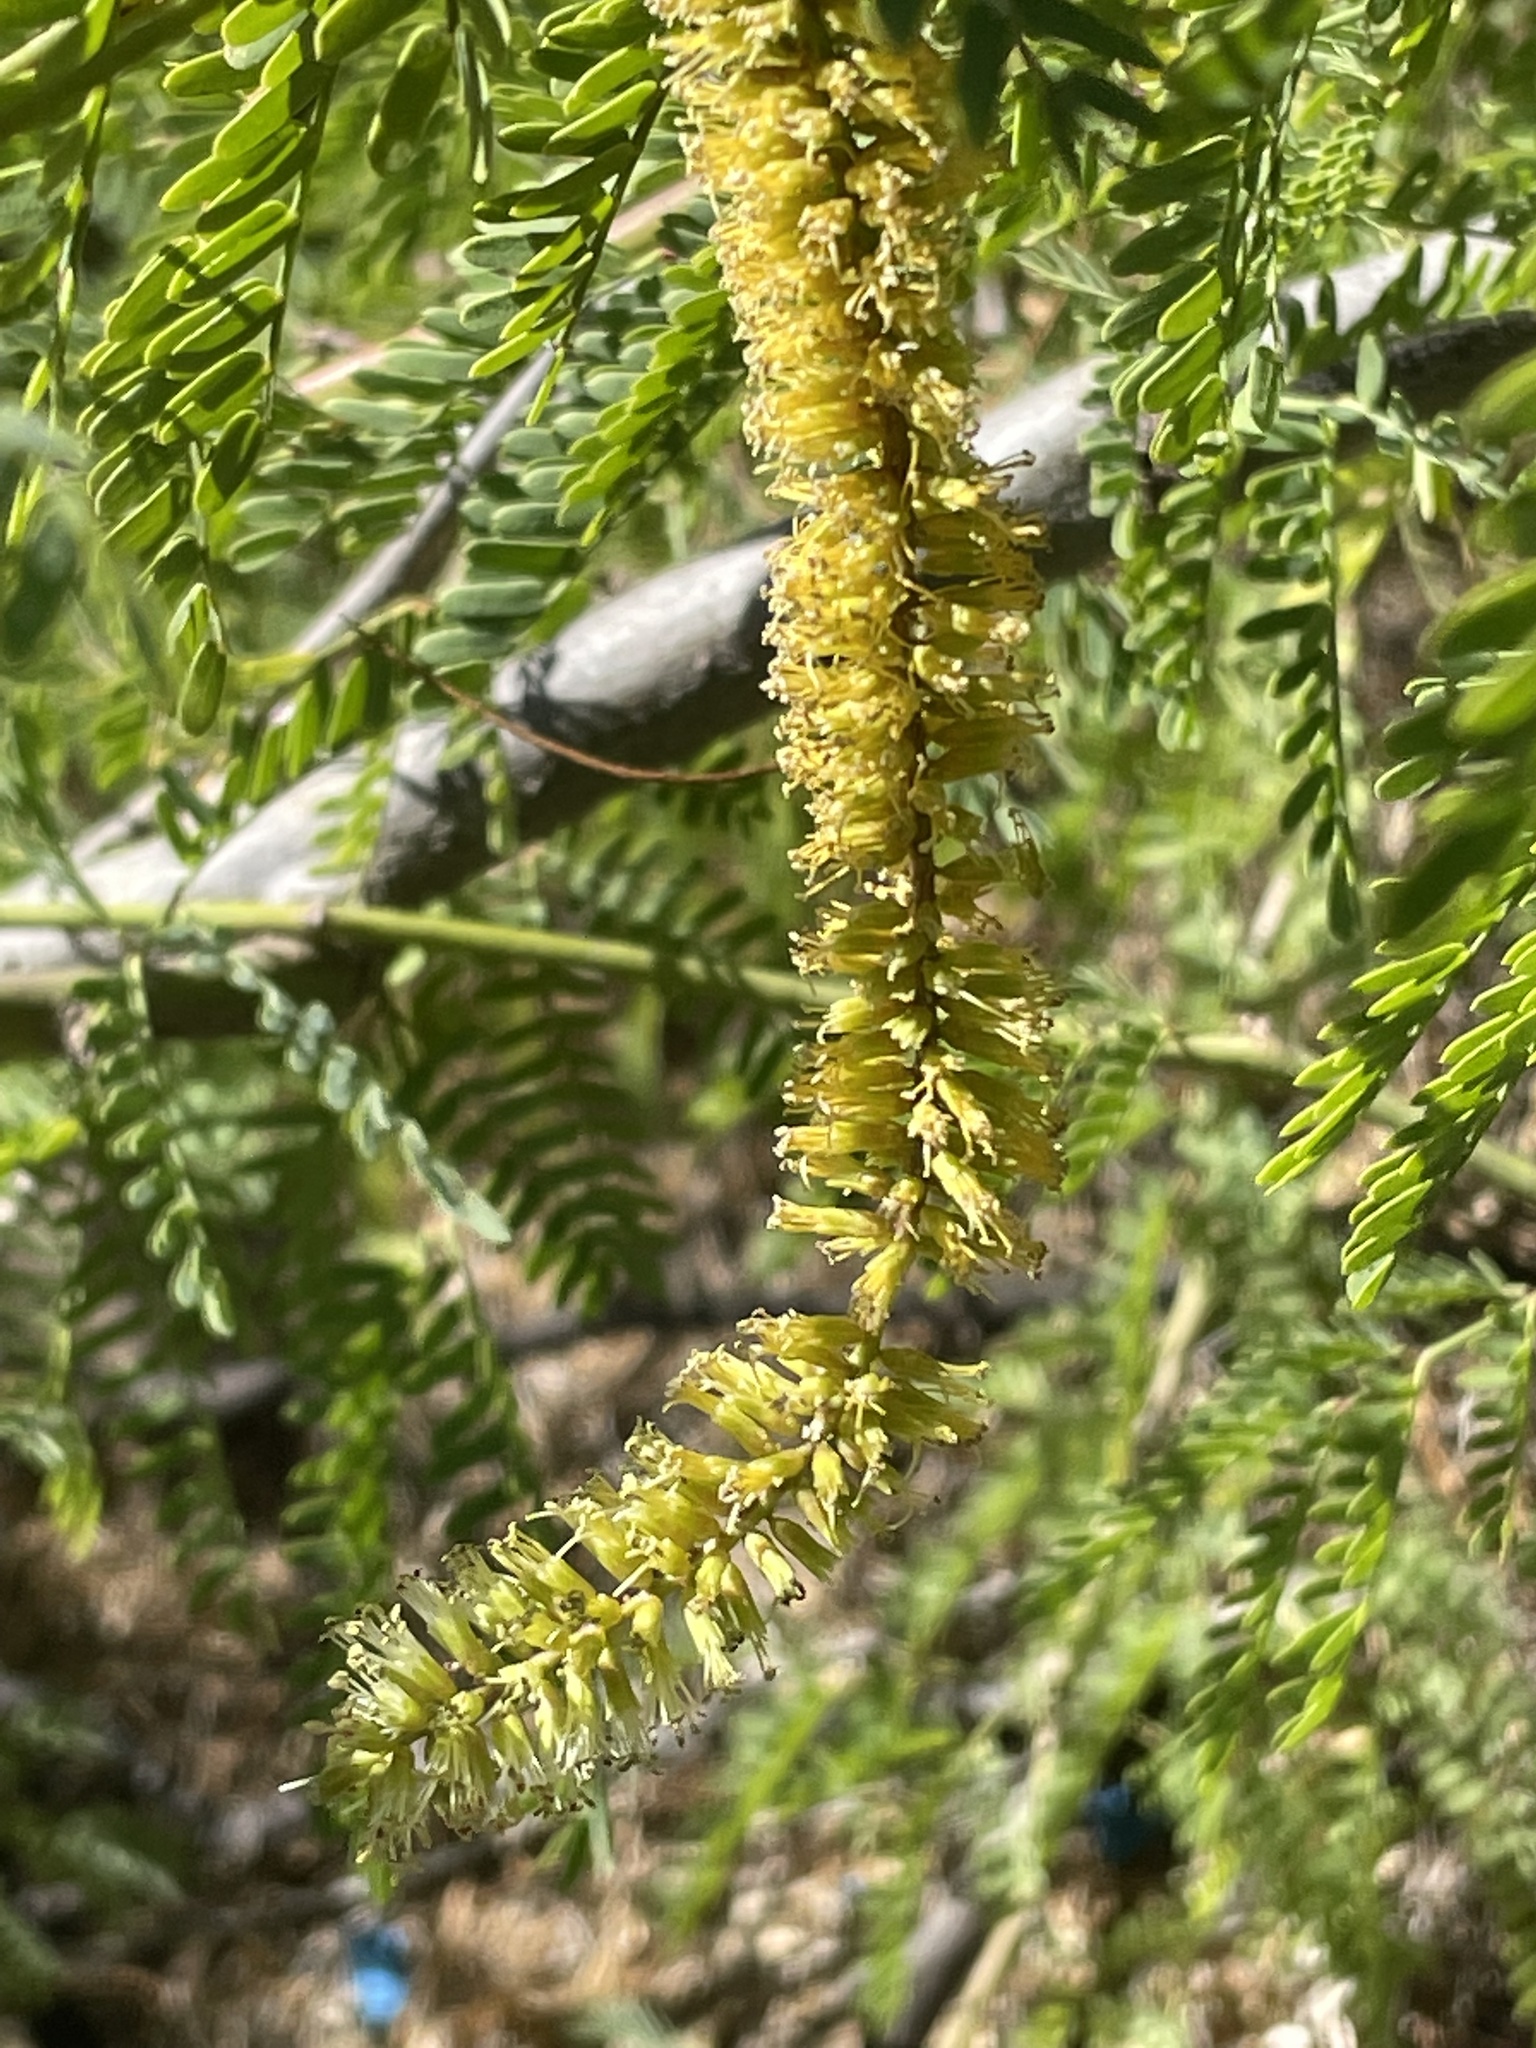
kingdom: Plantae
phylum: Tracheophyta
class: Magnoliopsida
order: Fabales
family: Fabaceae
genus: Prosopis
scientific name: Prosopis juliflora
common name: Mesquite
